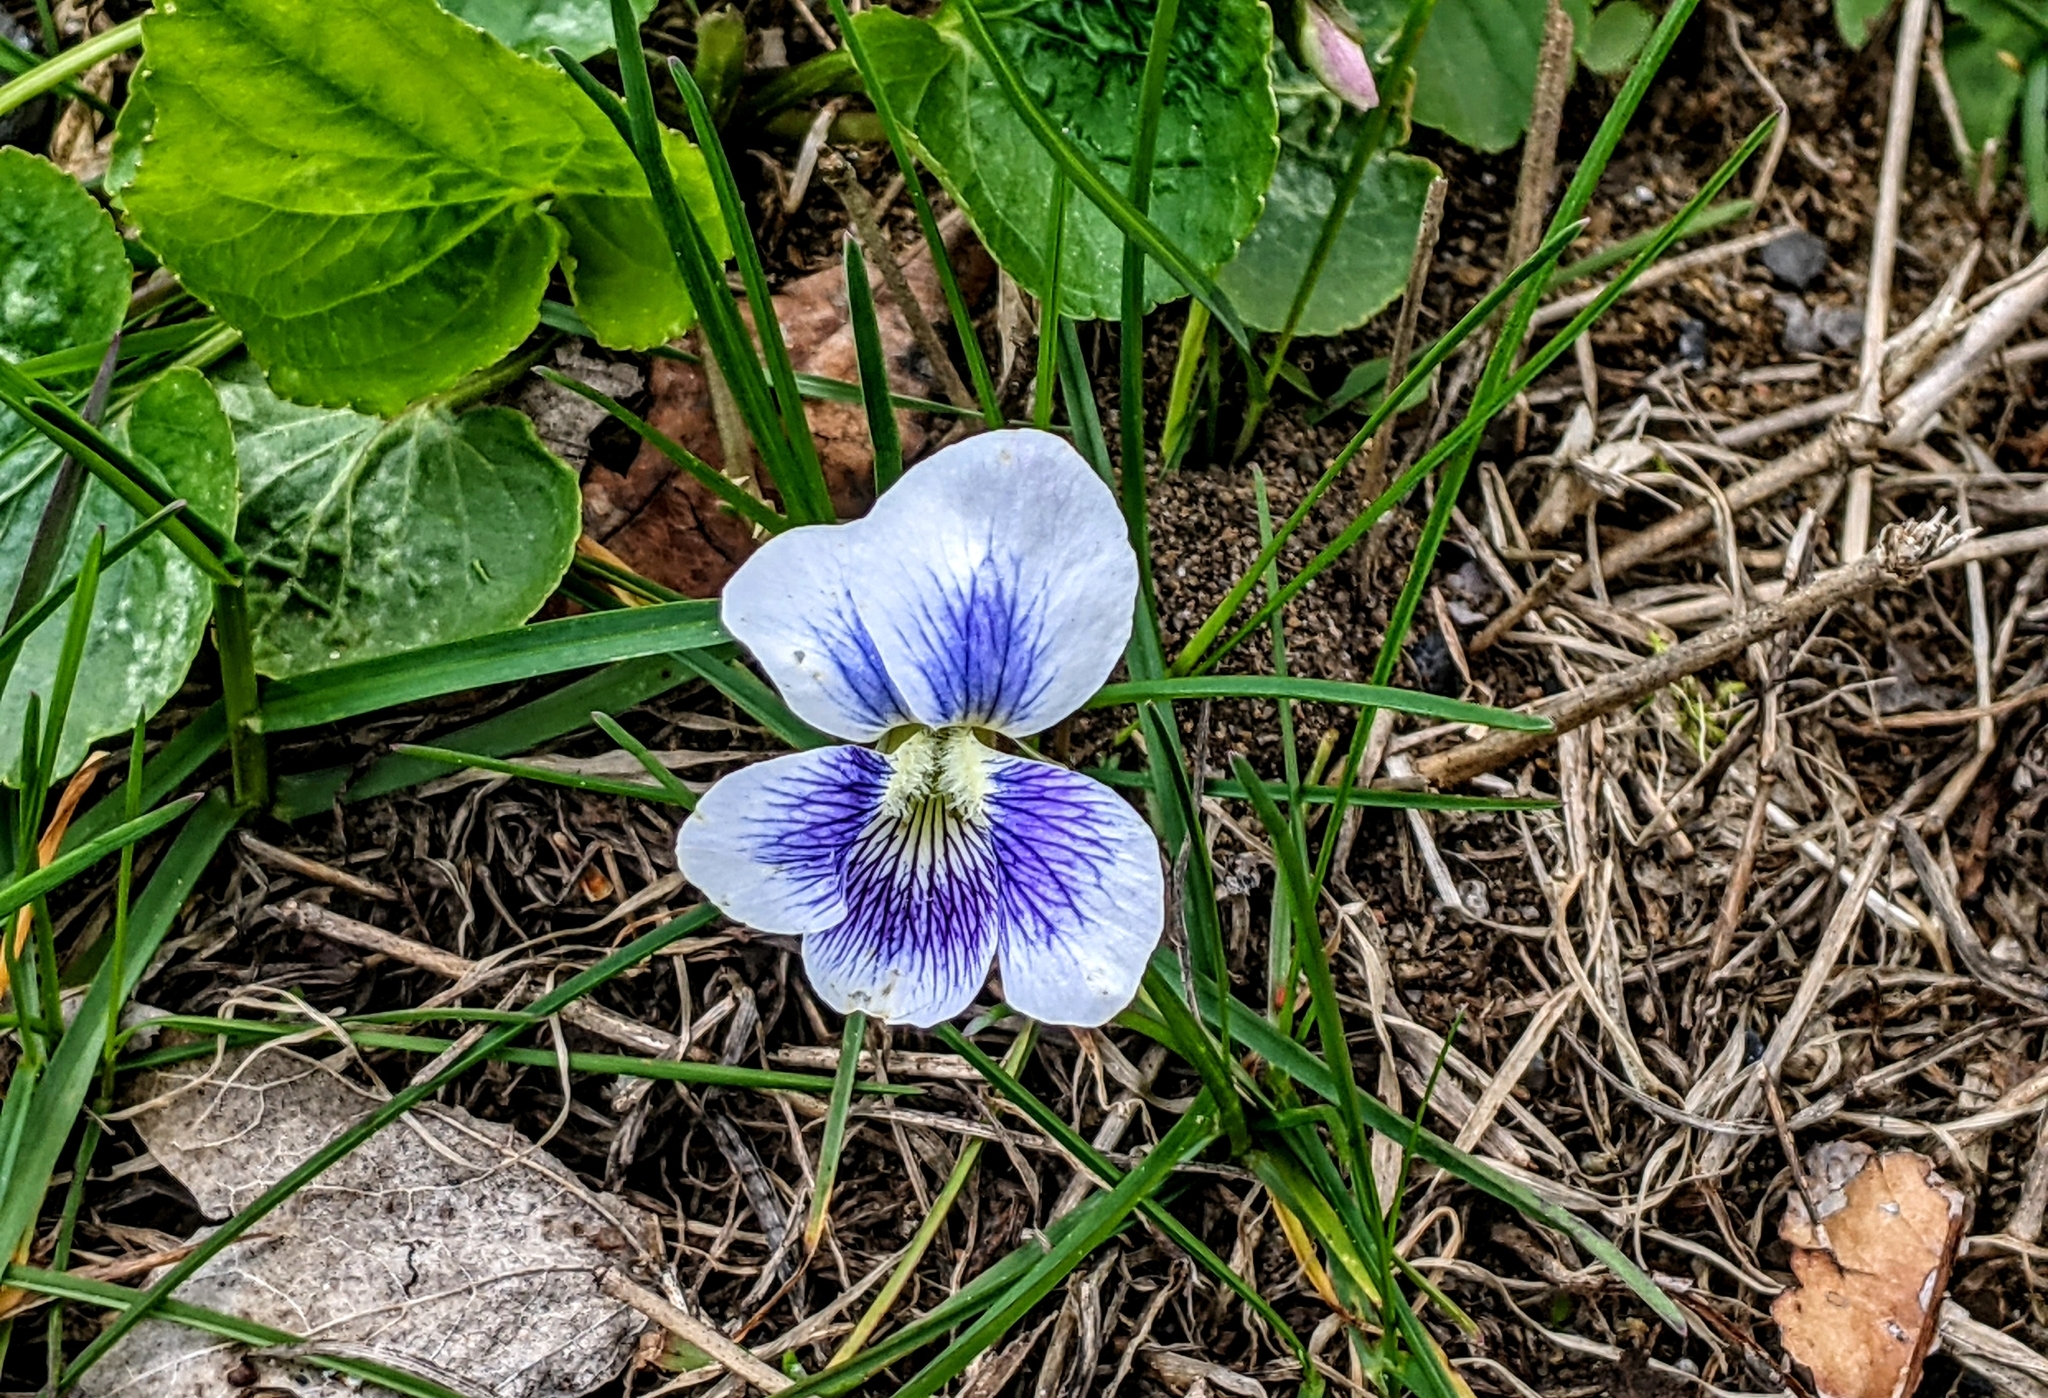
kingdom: Plantae
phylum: Tracheophyta
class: Magnoliopsida
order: Malpighiales
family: Violaceae
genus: Viola
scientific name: Viola sororia
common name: Dooryard violet
